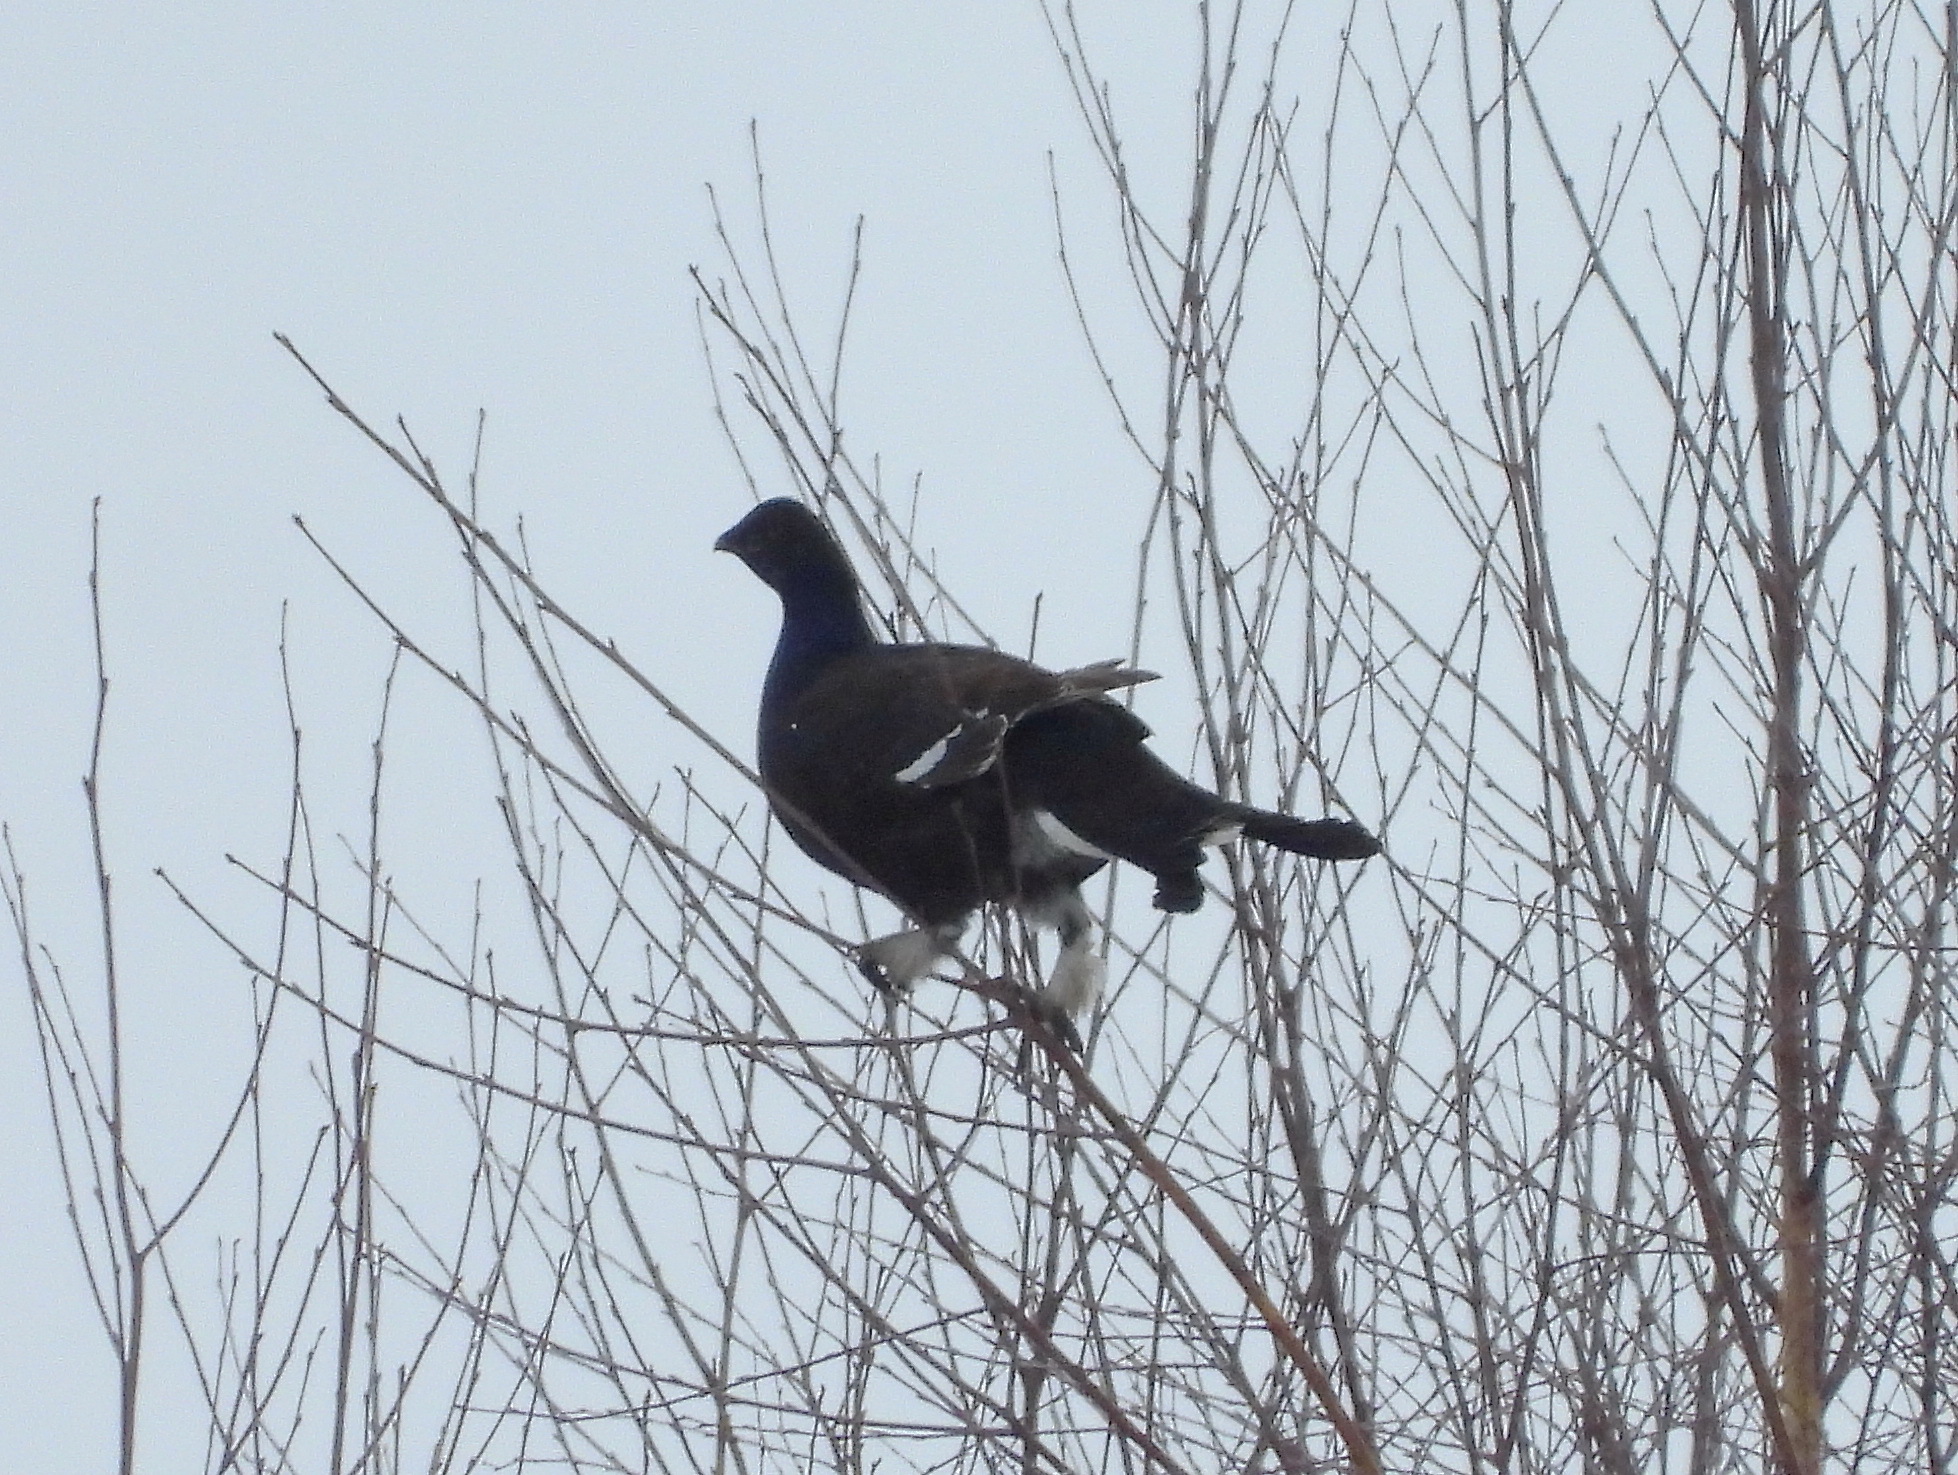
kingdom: Animalia
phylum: Chordata
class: Aves
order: Galliformes
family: Phasianidae
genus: Lyrurus
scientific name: Lyrurus tetrix
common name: Black grouse
